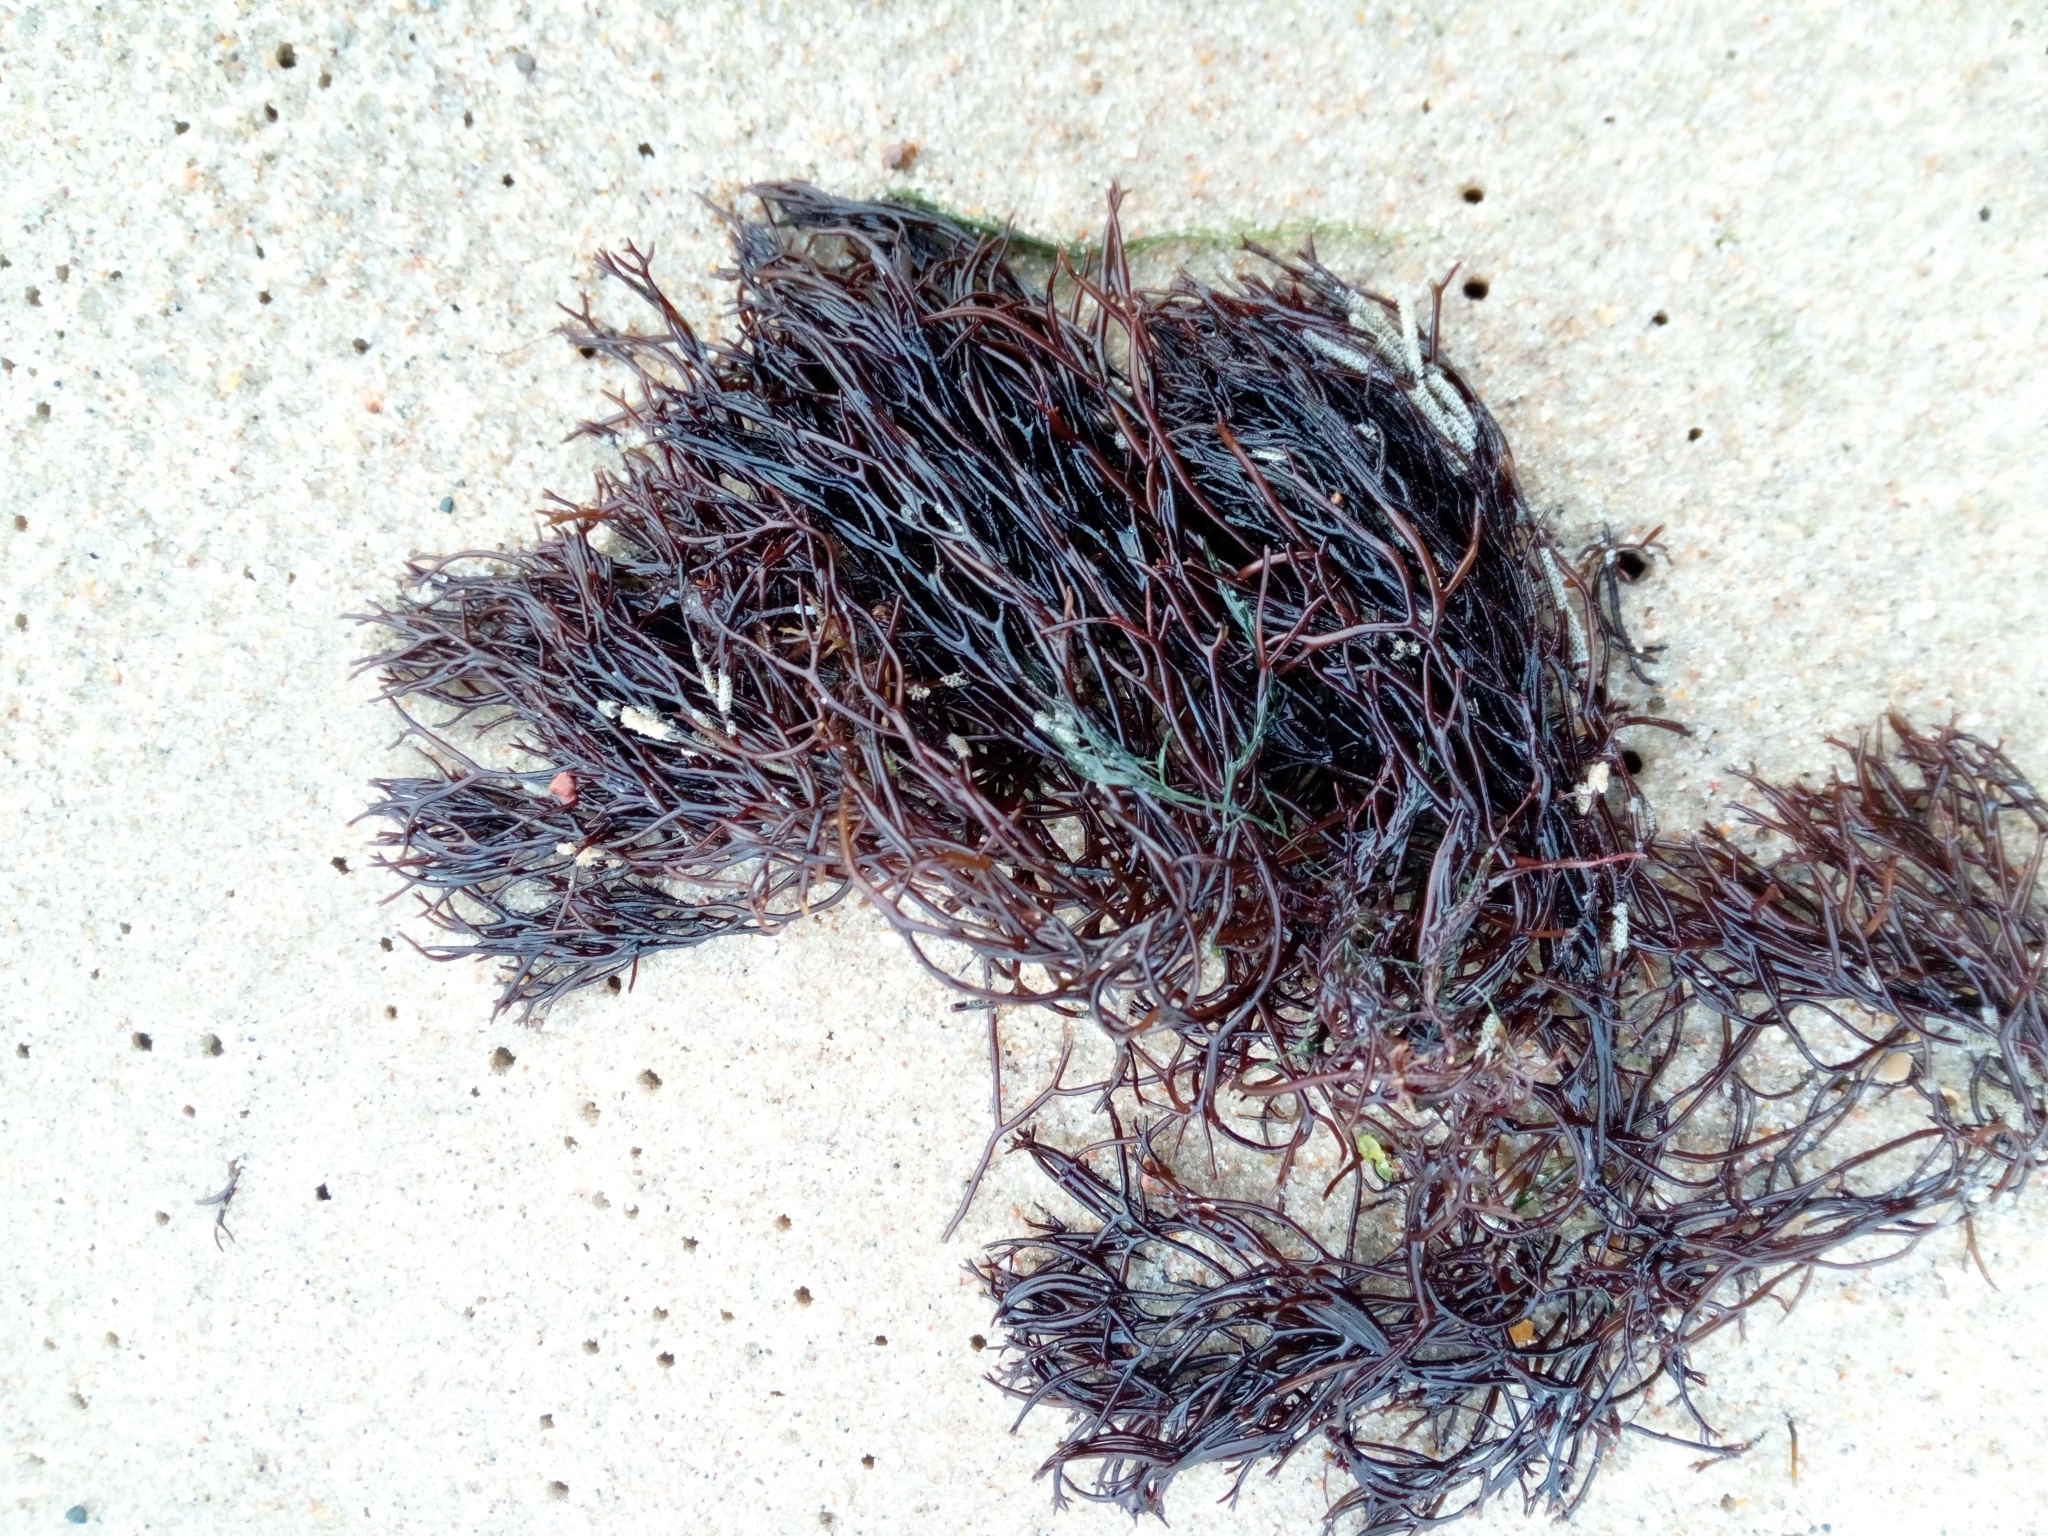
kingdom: Plantae
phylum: Rhodophyta
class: Florideophyceae
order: Gigartinales
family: Furcellariaceae
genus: Furcellaria
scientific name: Furcellaria lumbricalis
